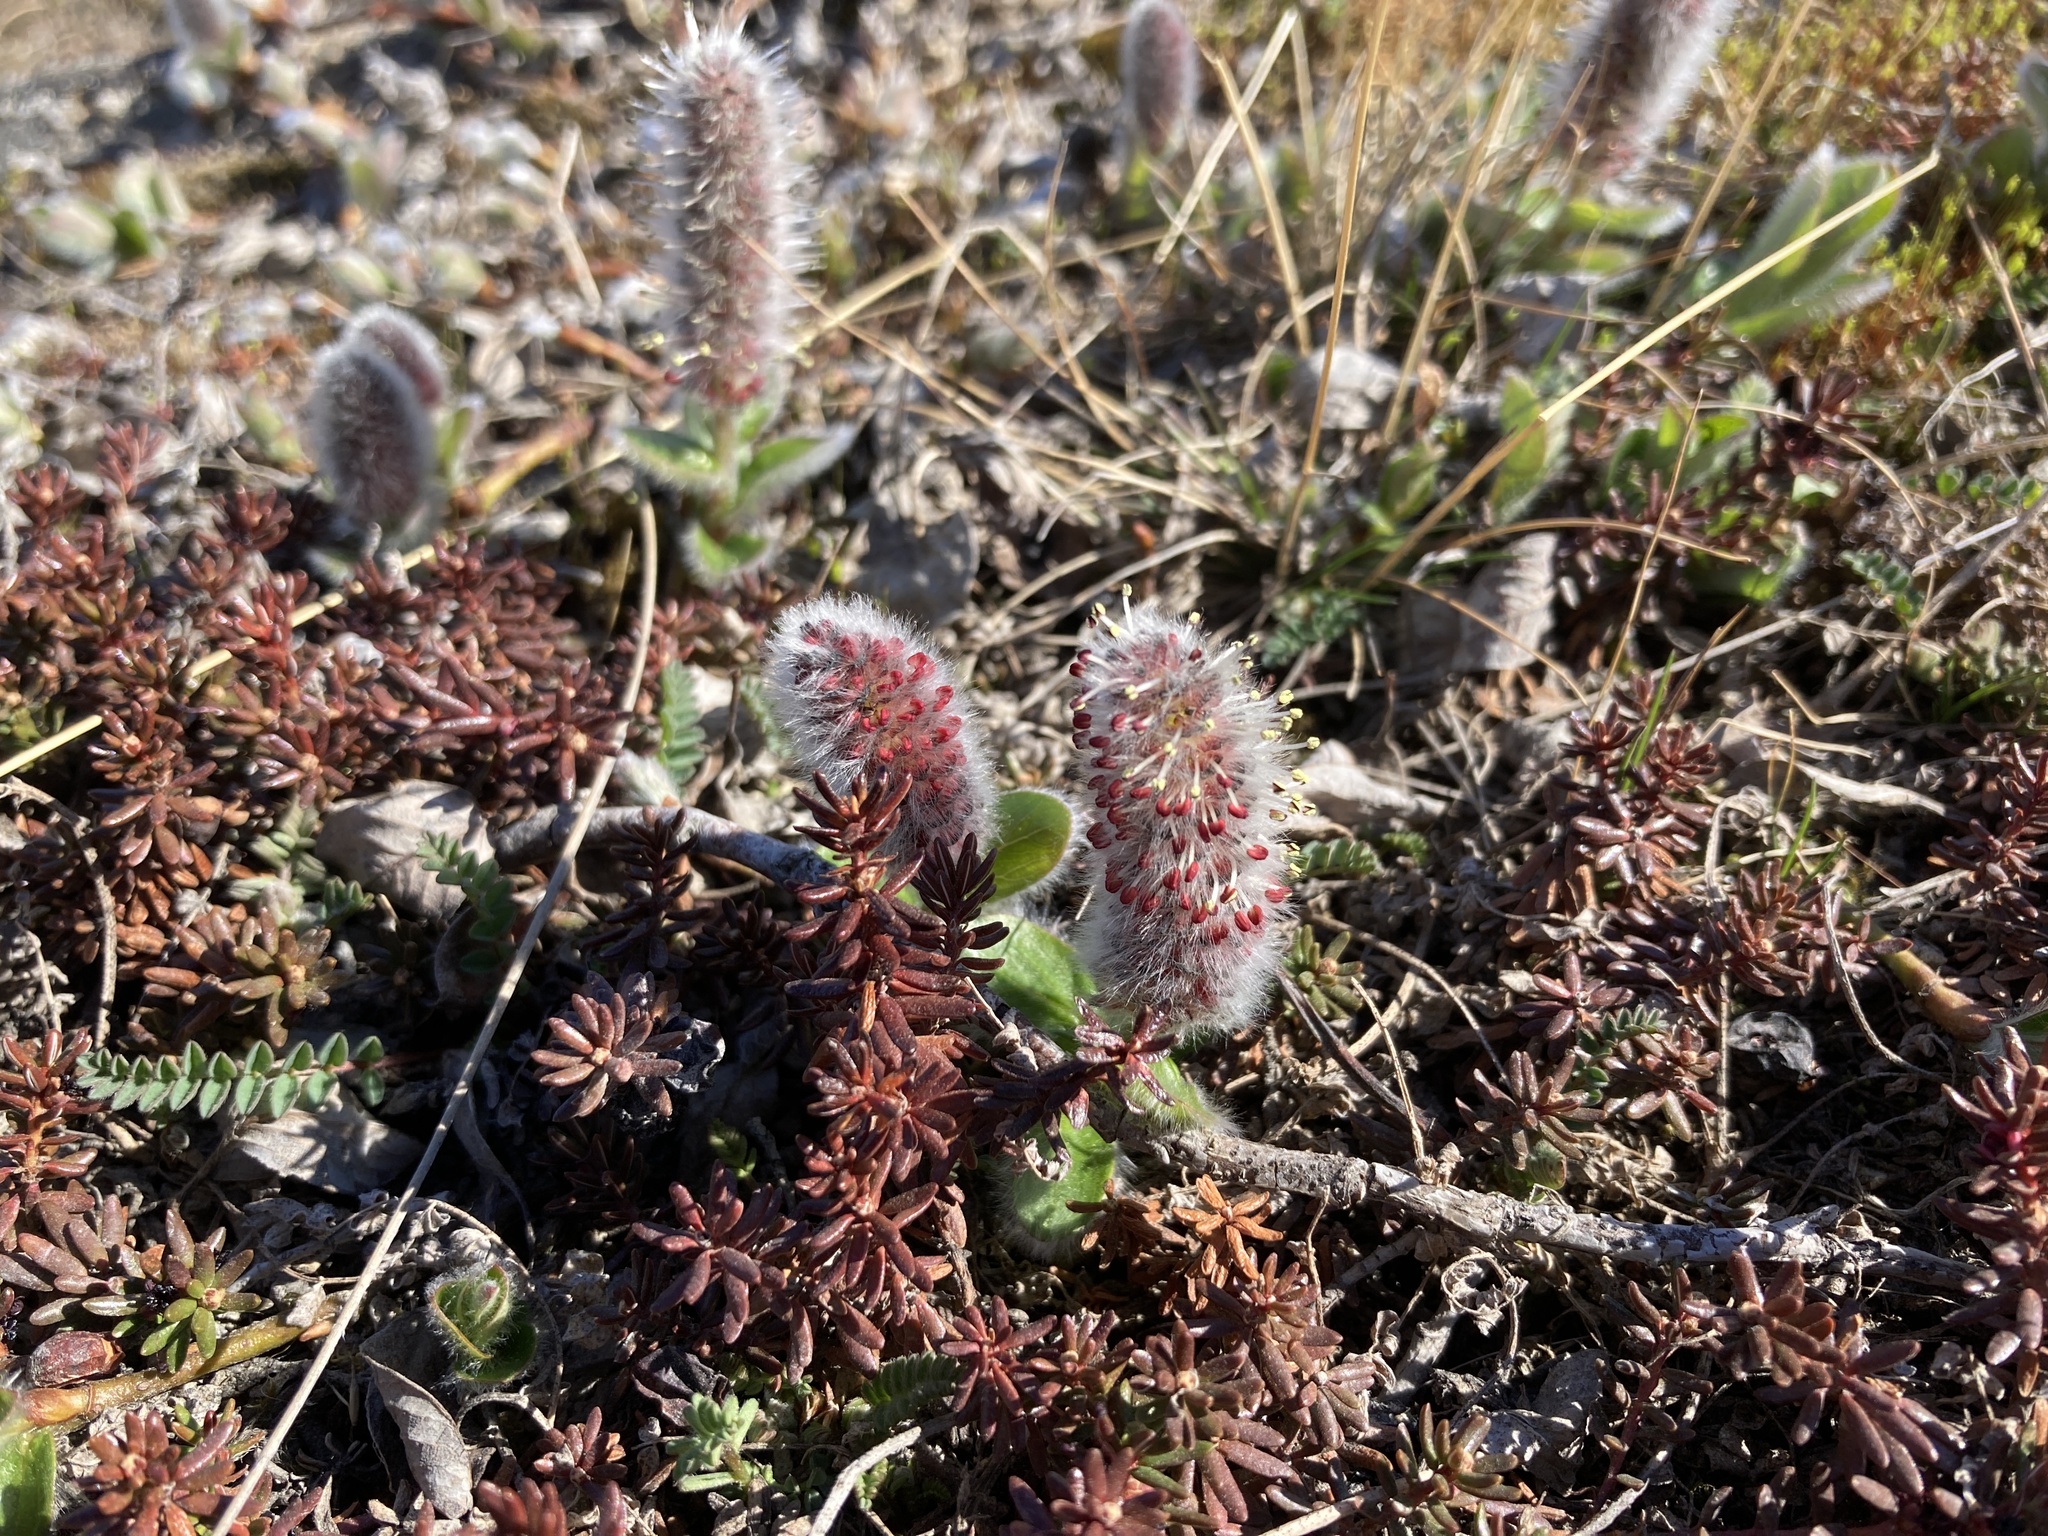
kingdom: Plantae
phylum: Tracheophyta
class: Magnoliopsida
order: Malpighiales
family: Salicaceae
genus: Salix
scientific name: Salix arctica
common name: Arctic willow
